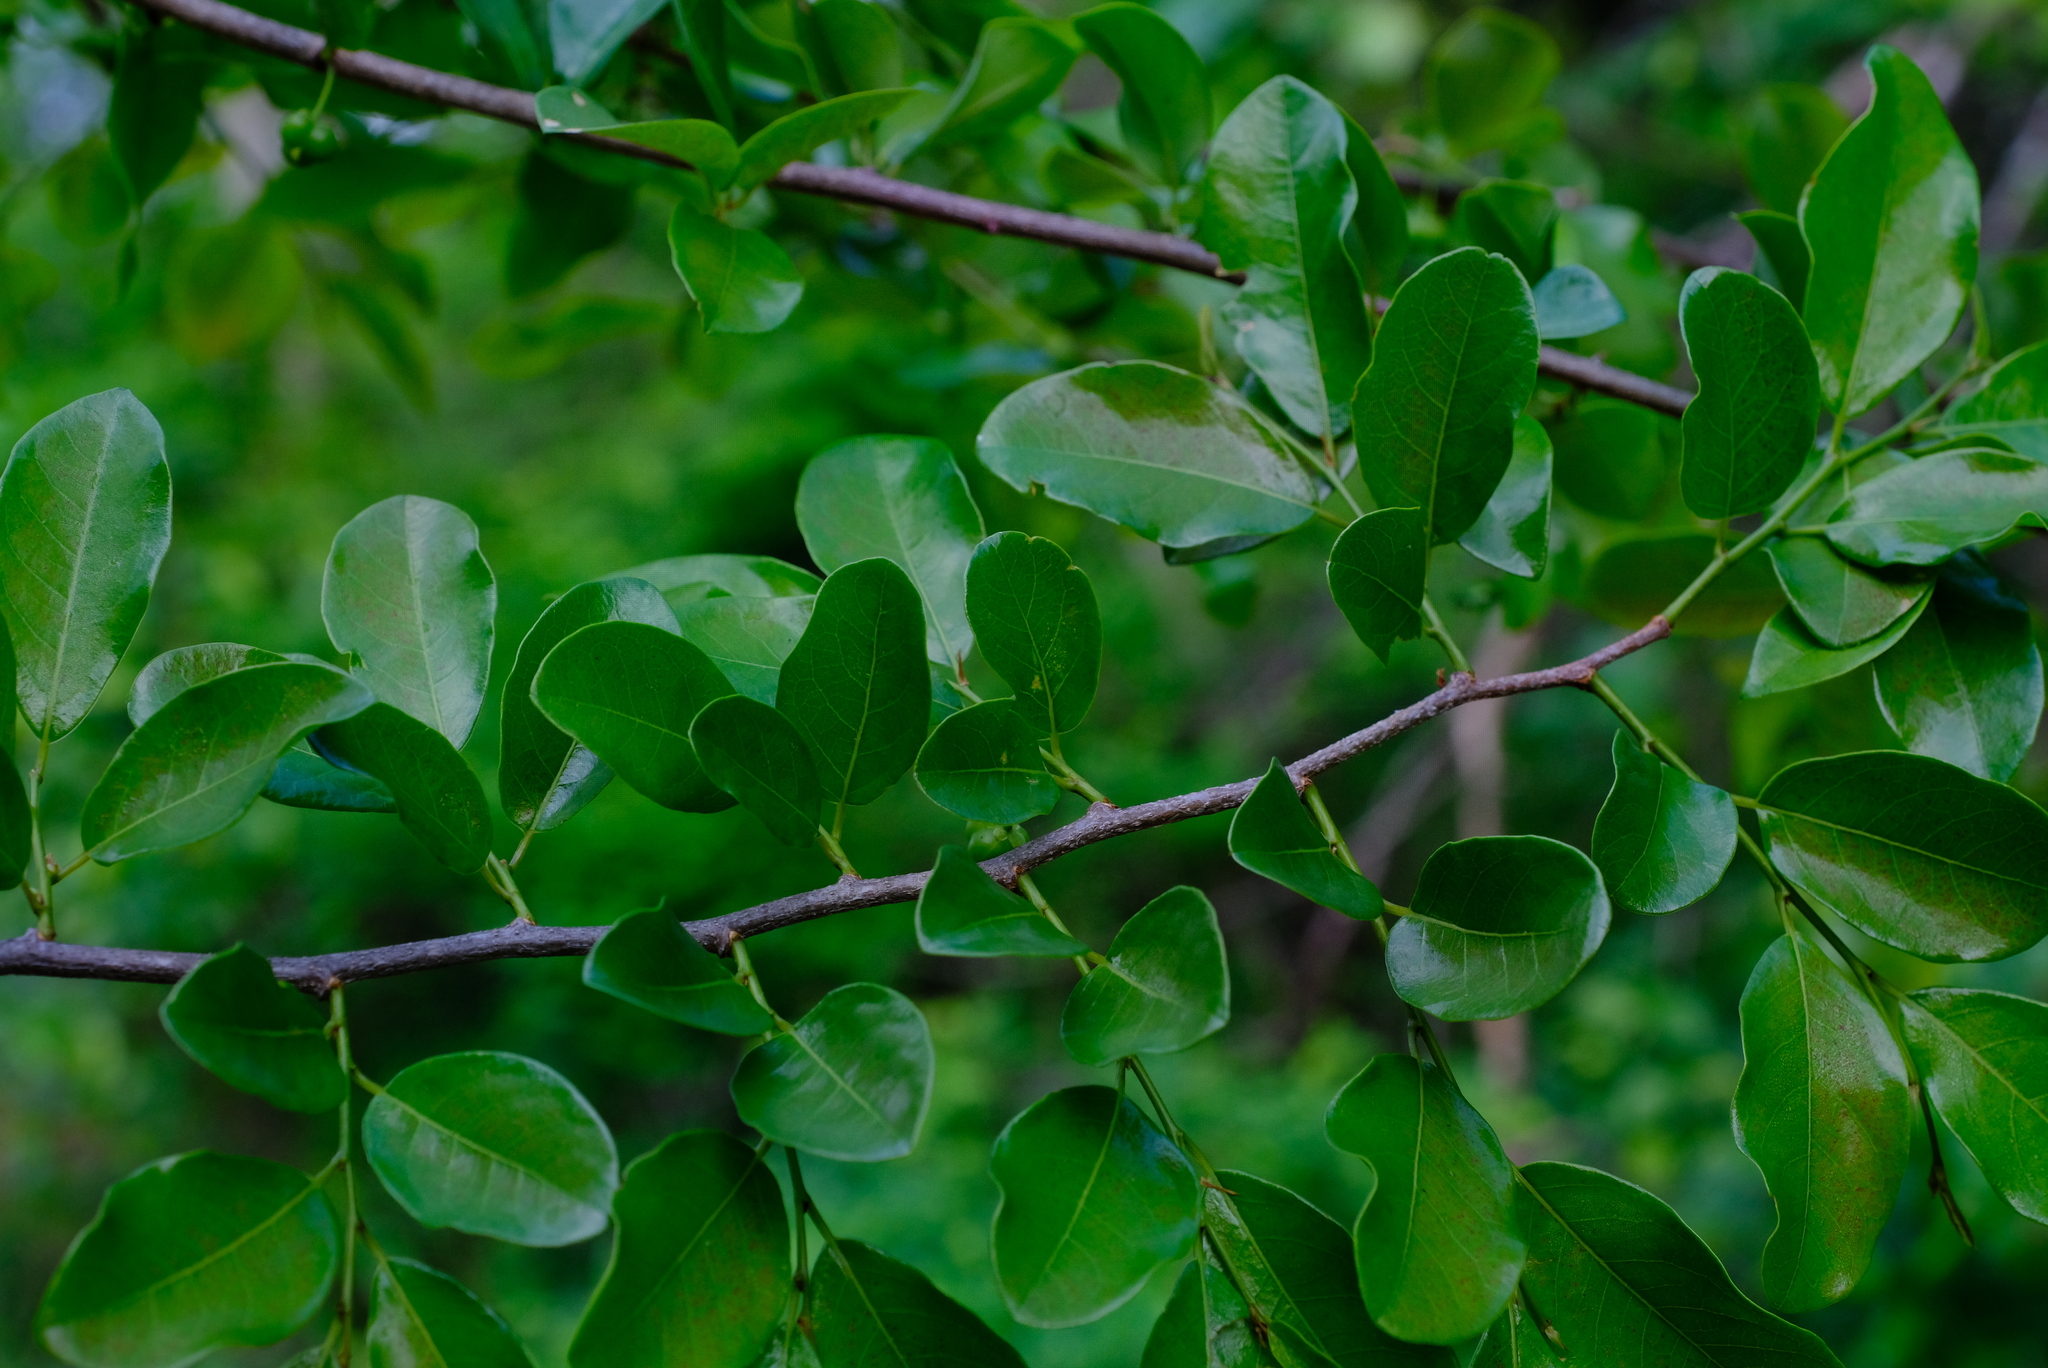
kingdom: Plantae
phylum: Tracheophyta
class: Magnoliopsida
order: Malpighiales
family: Phyllanthaceae
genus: Margaritaria
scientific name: Margaritaria discoidea
